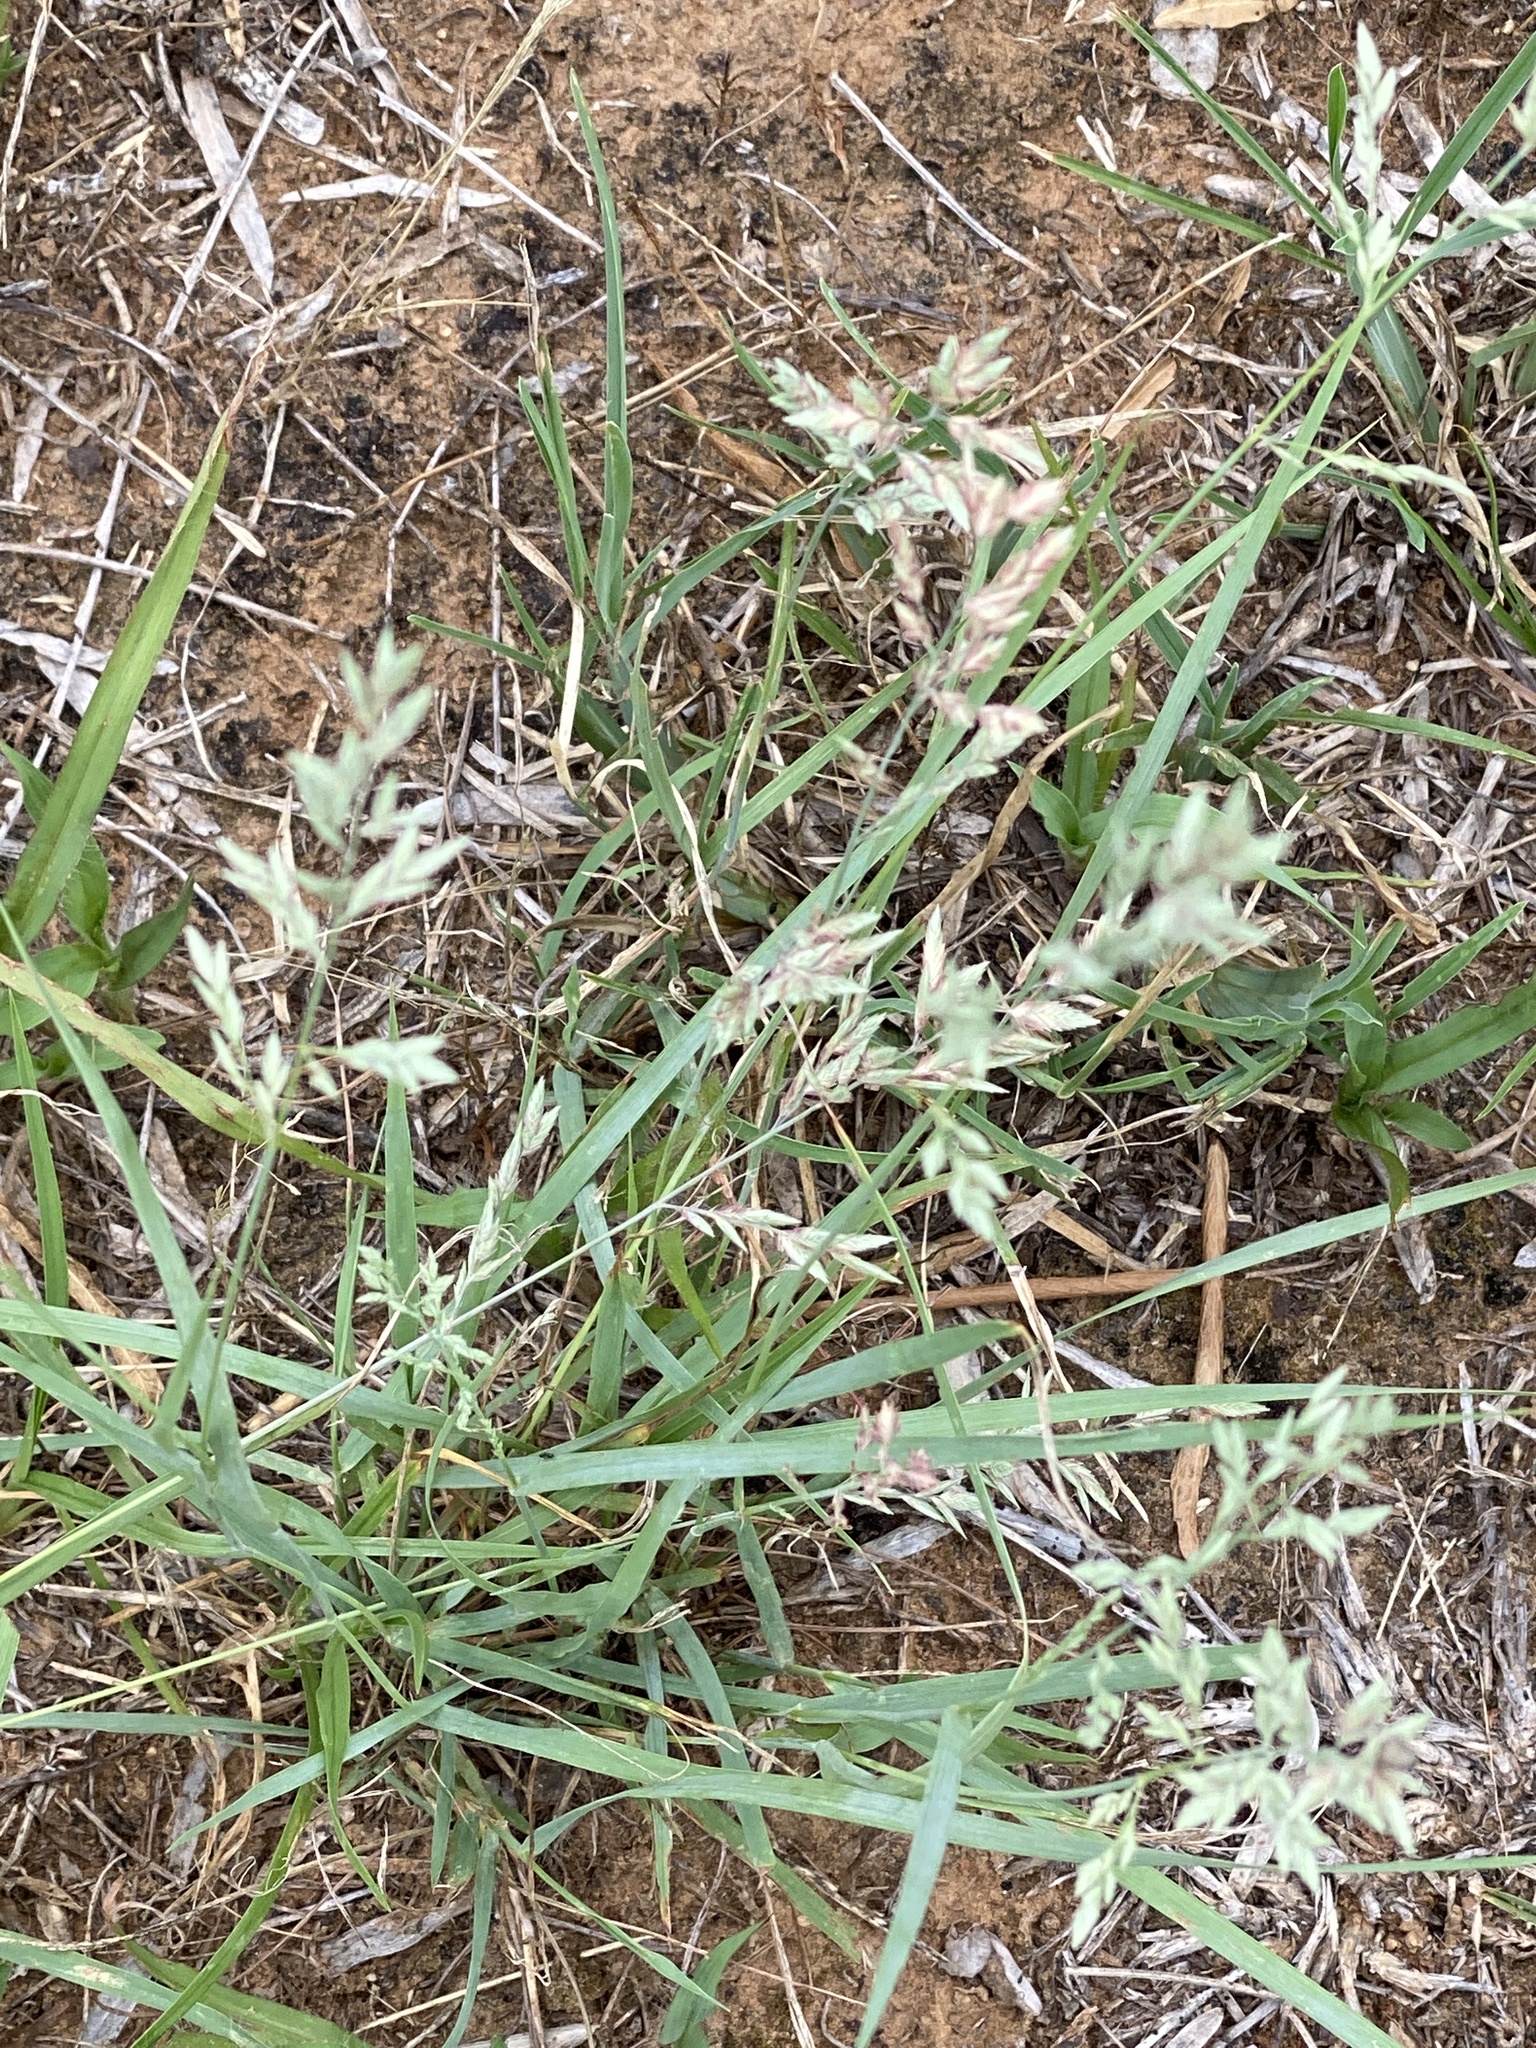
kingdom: Plantae
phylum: Tracheophyta
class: Liliopsida
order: Poales
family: Poaceae
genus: Eragrostis
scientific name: Eragrostis secundiflora
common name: Red love grass
